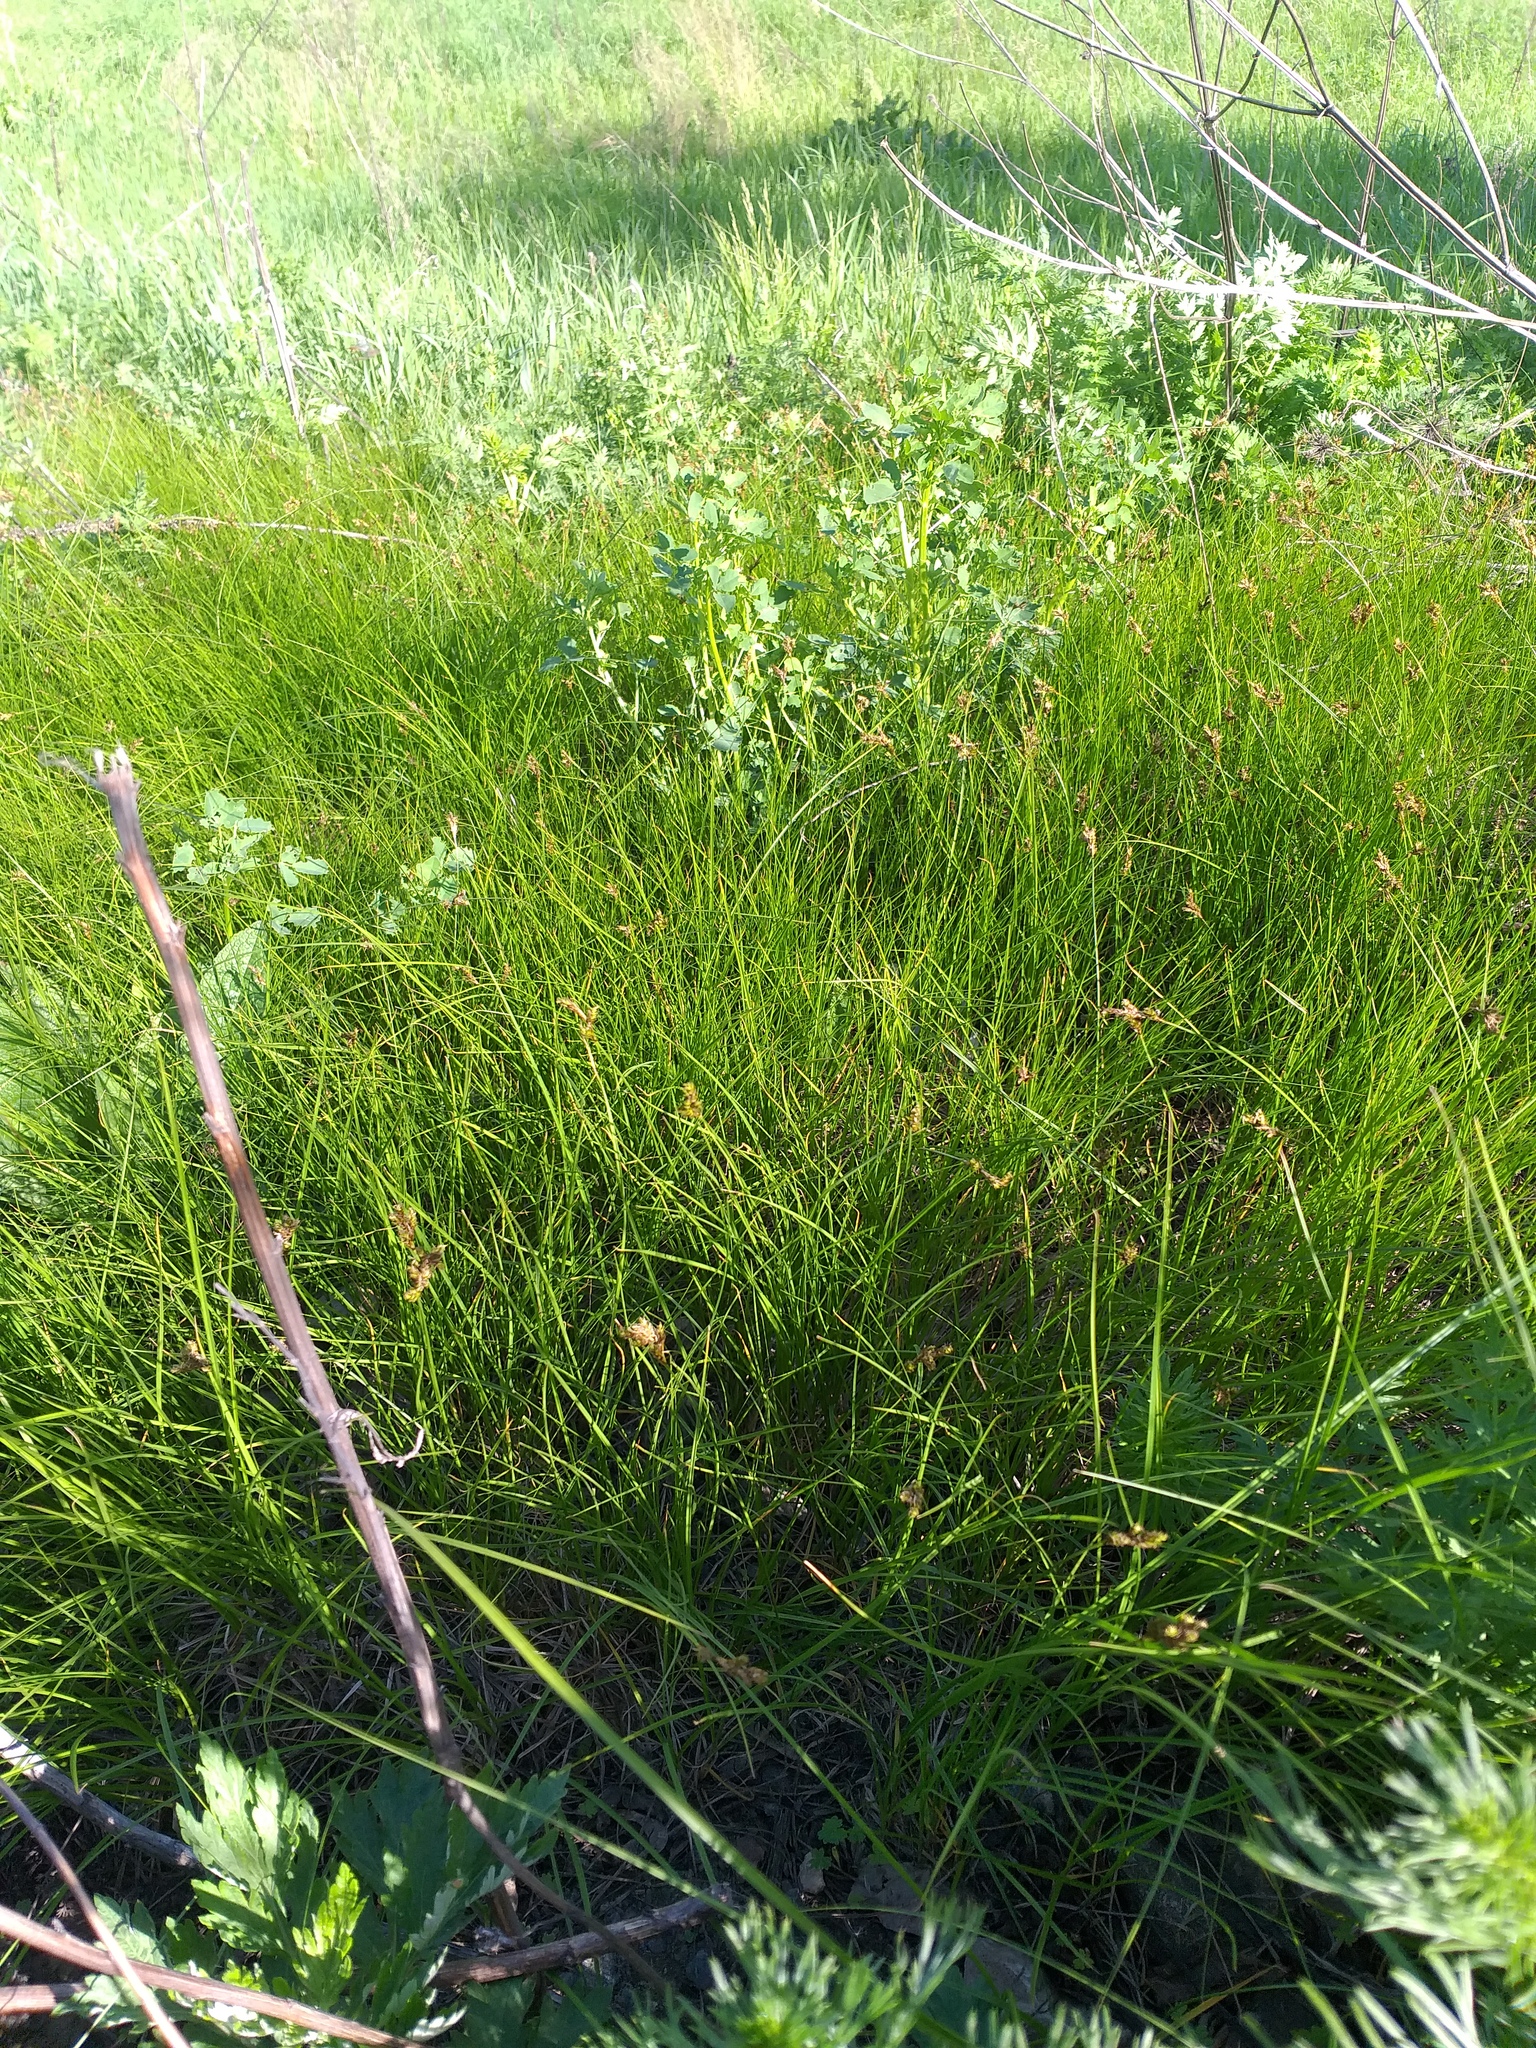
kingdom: Plantae
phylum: Tracheophyta
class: Liliopsida
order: Poales
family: Cyperaceae
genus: Carex
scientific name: Carex praecox
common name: Early sedge
